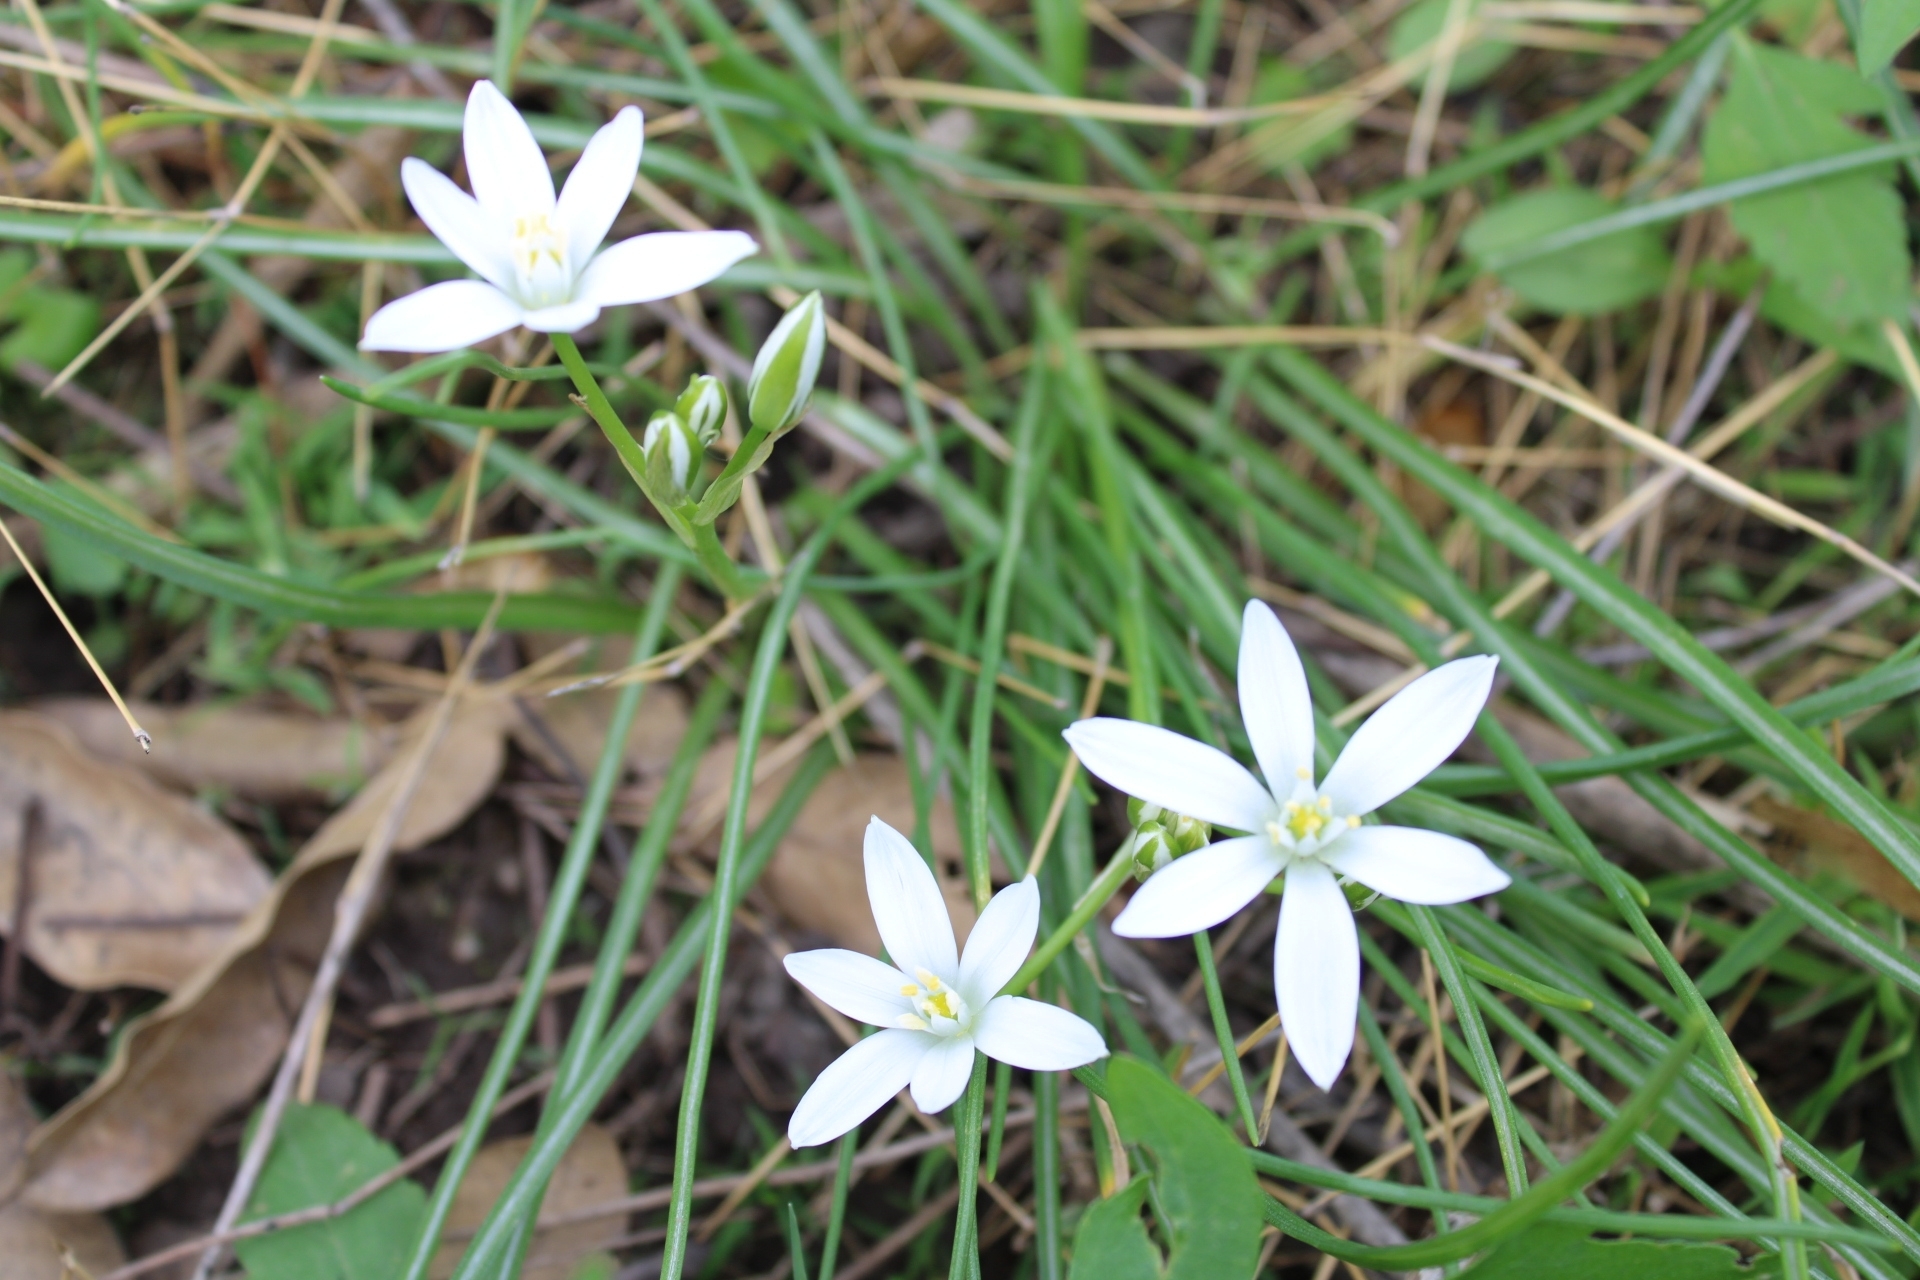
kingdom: Plantae
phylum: Tracheophyta
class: Liliopsida
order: Asparagales
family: Asparagaceae
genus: Ornithogalum
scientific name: Ornithogalum umbellatum
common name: Garden star-of-bethlehem
